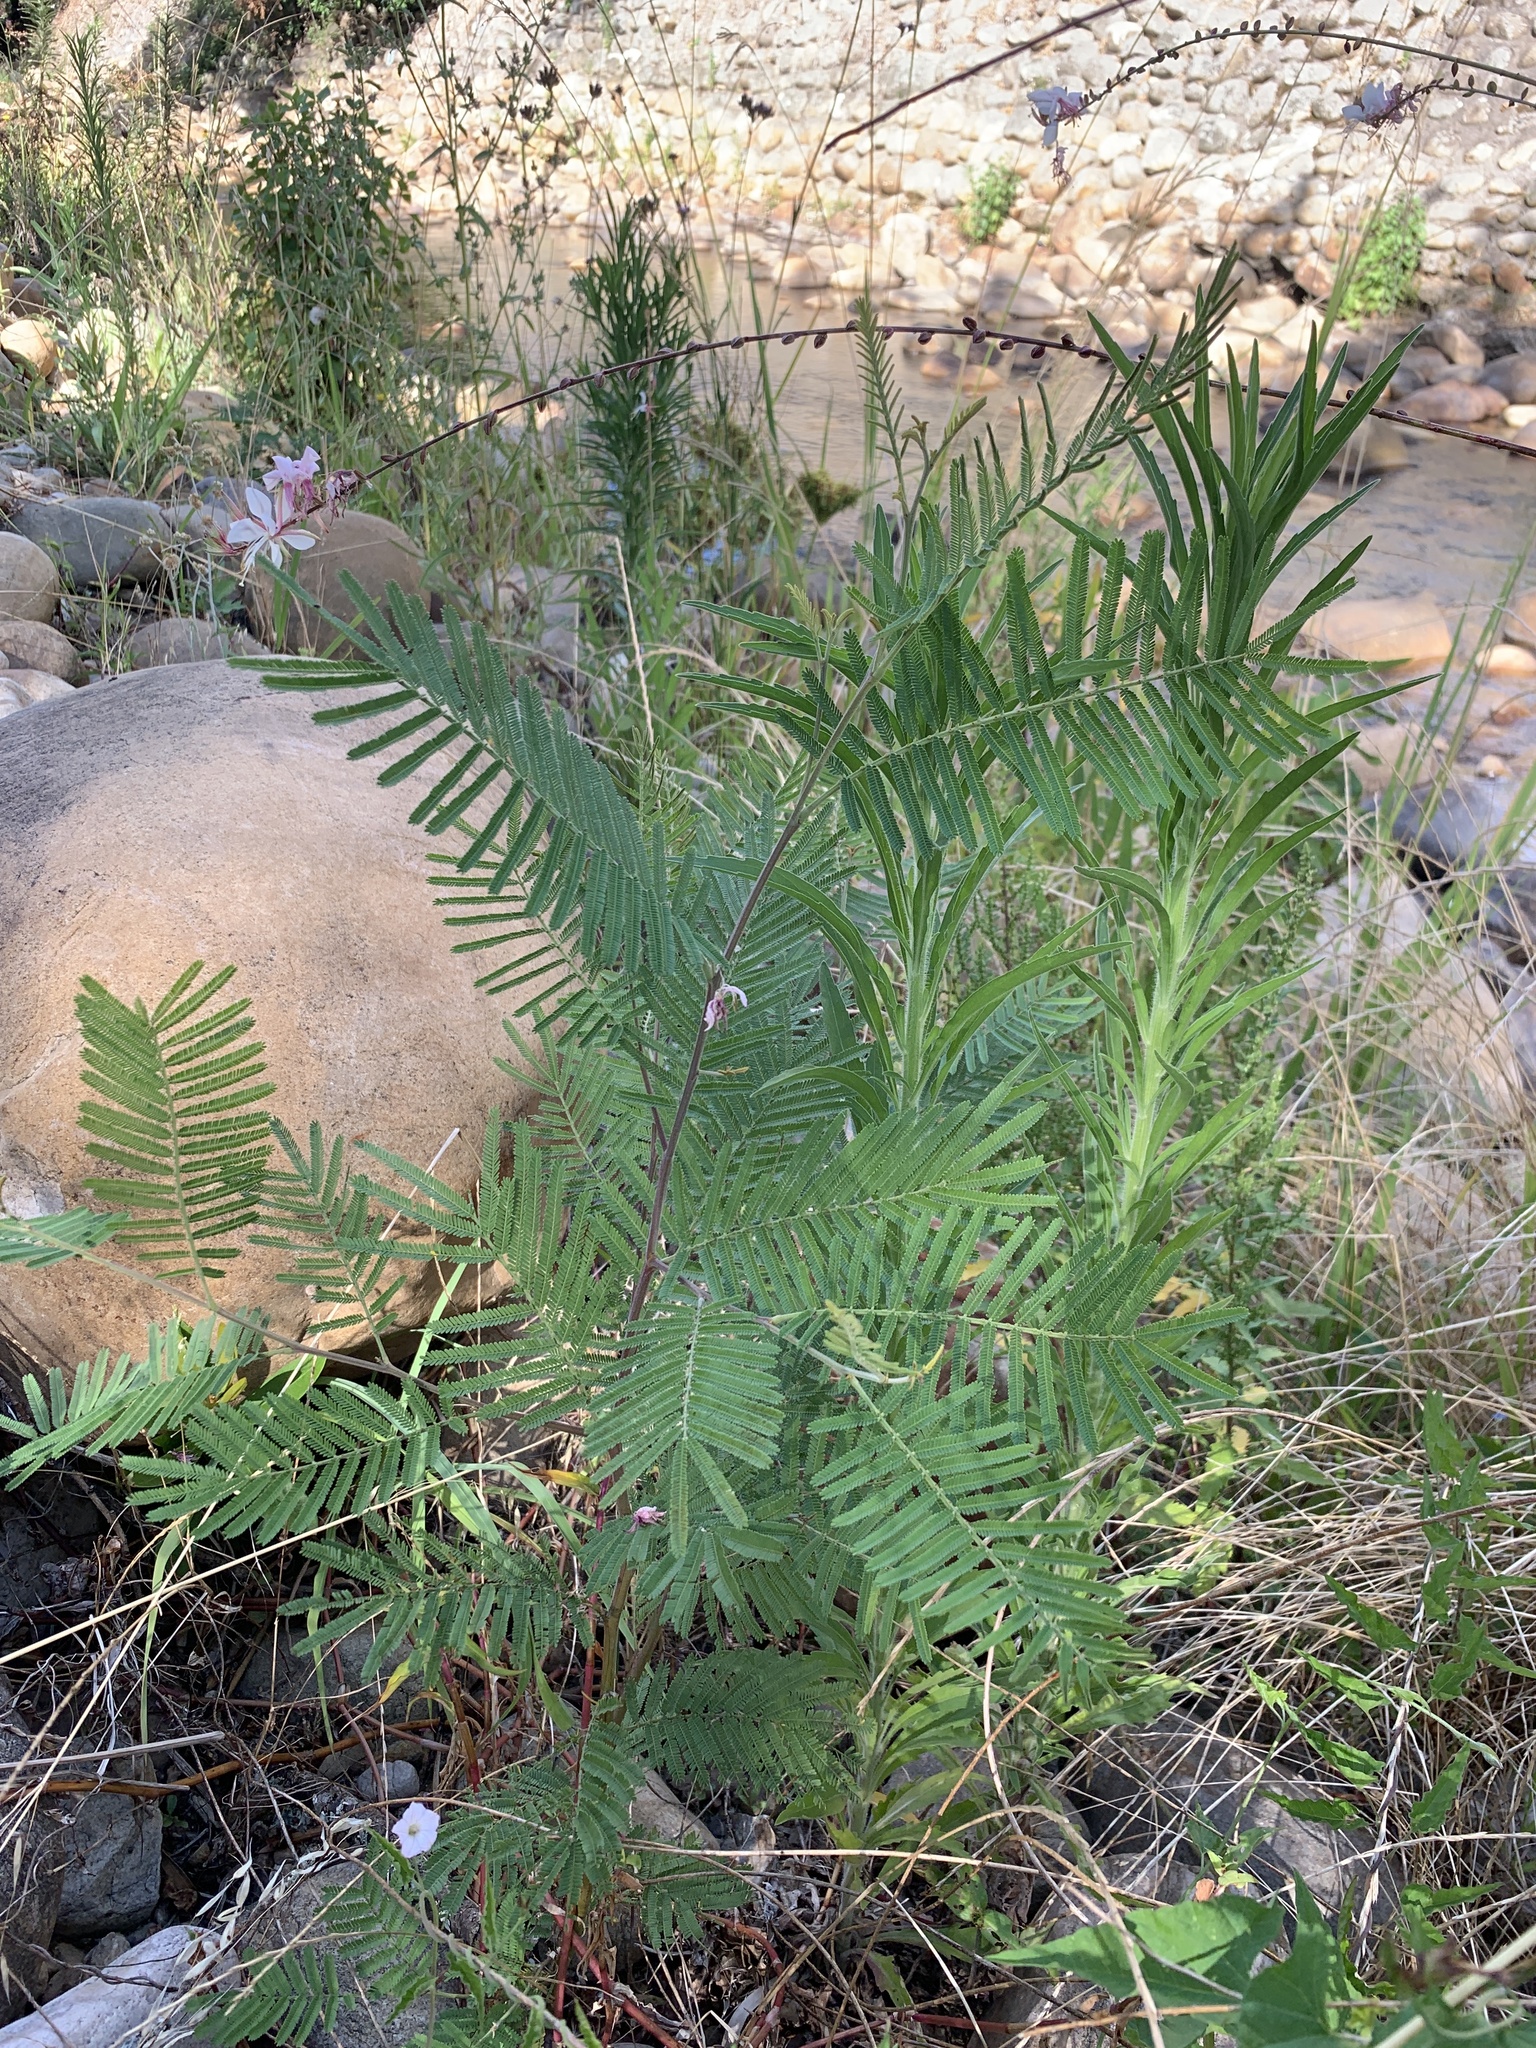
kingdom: Plantae
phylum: Tracheophyta
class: Magnoliopsida
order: Fabales
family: Fabaceae
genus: Acacia
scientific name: Acacia mearnsii
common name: Black wattle
